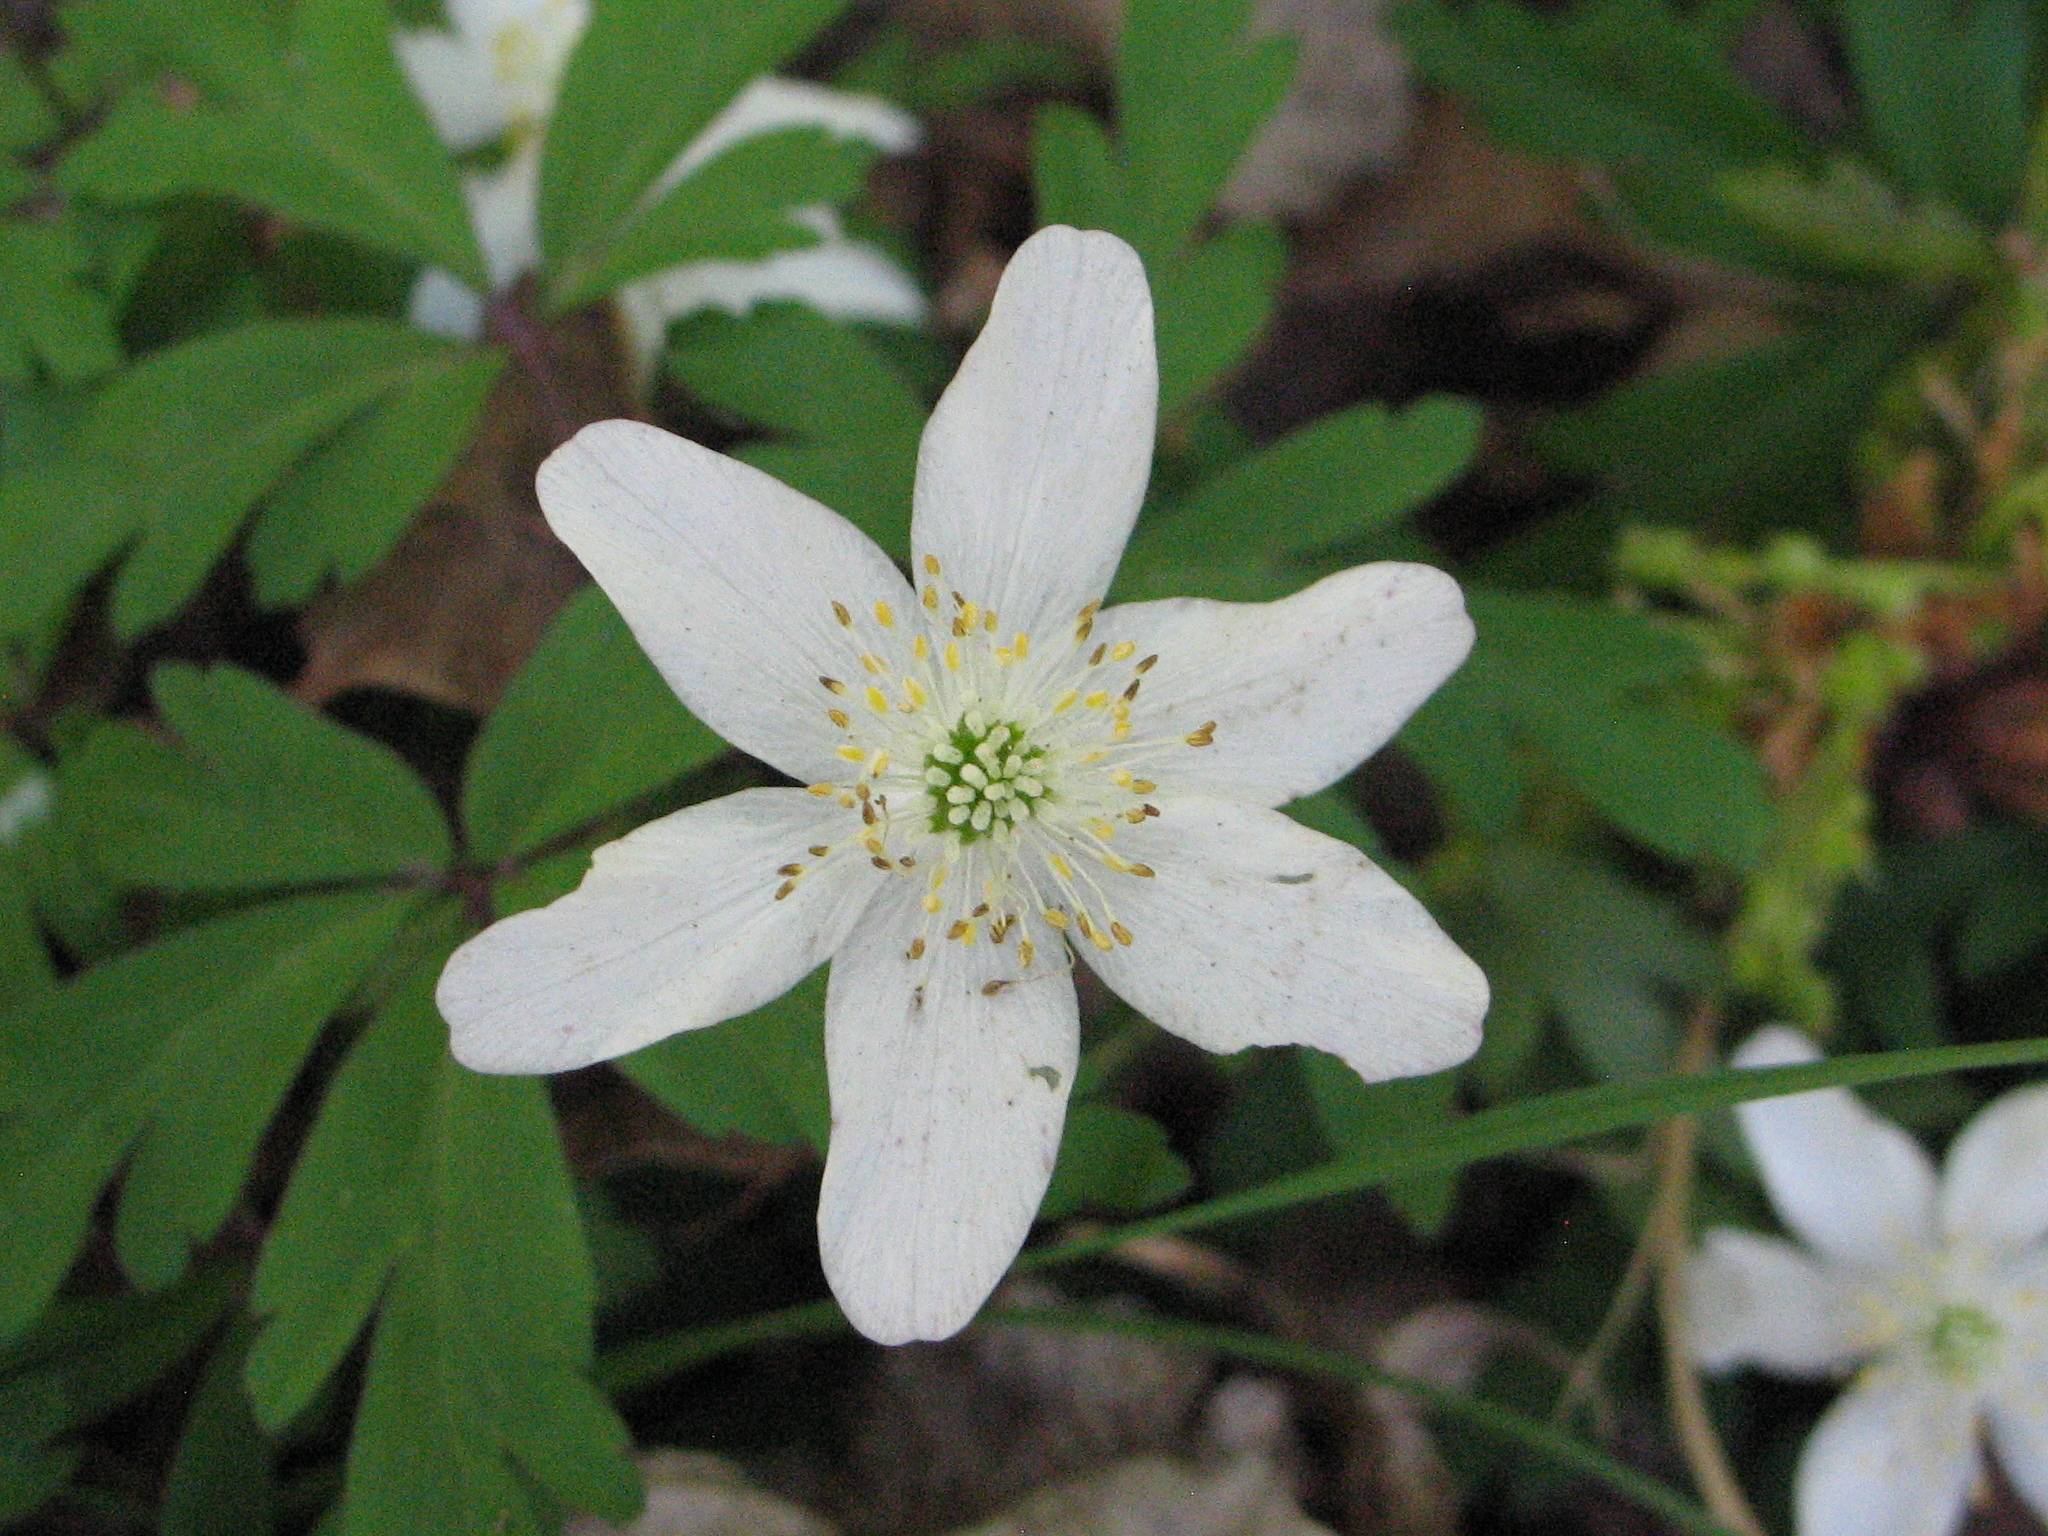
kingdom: Plantae
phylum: Tracheophyta
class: Magnoliopsida
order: Ranunculales
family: Ranunculaceae
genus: Anemone
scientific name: Anemone nemorosa
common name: Wood anemone
